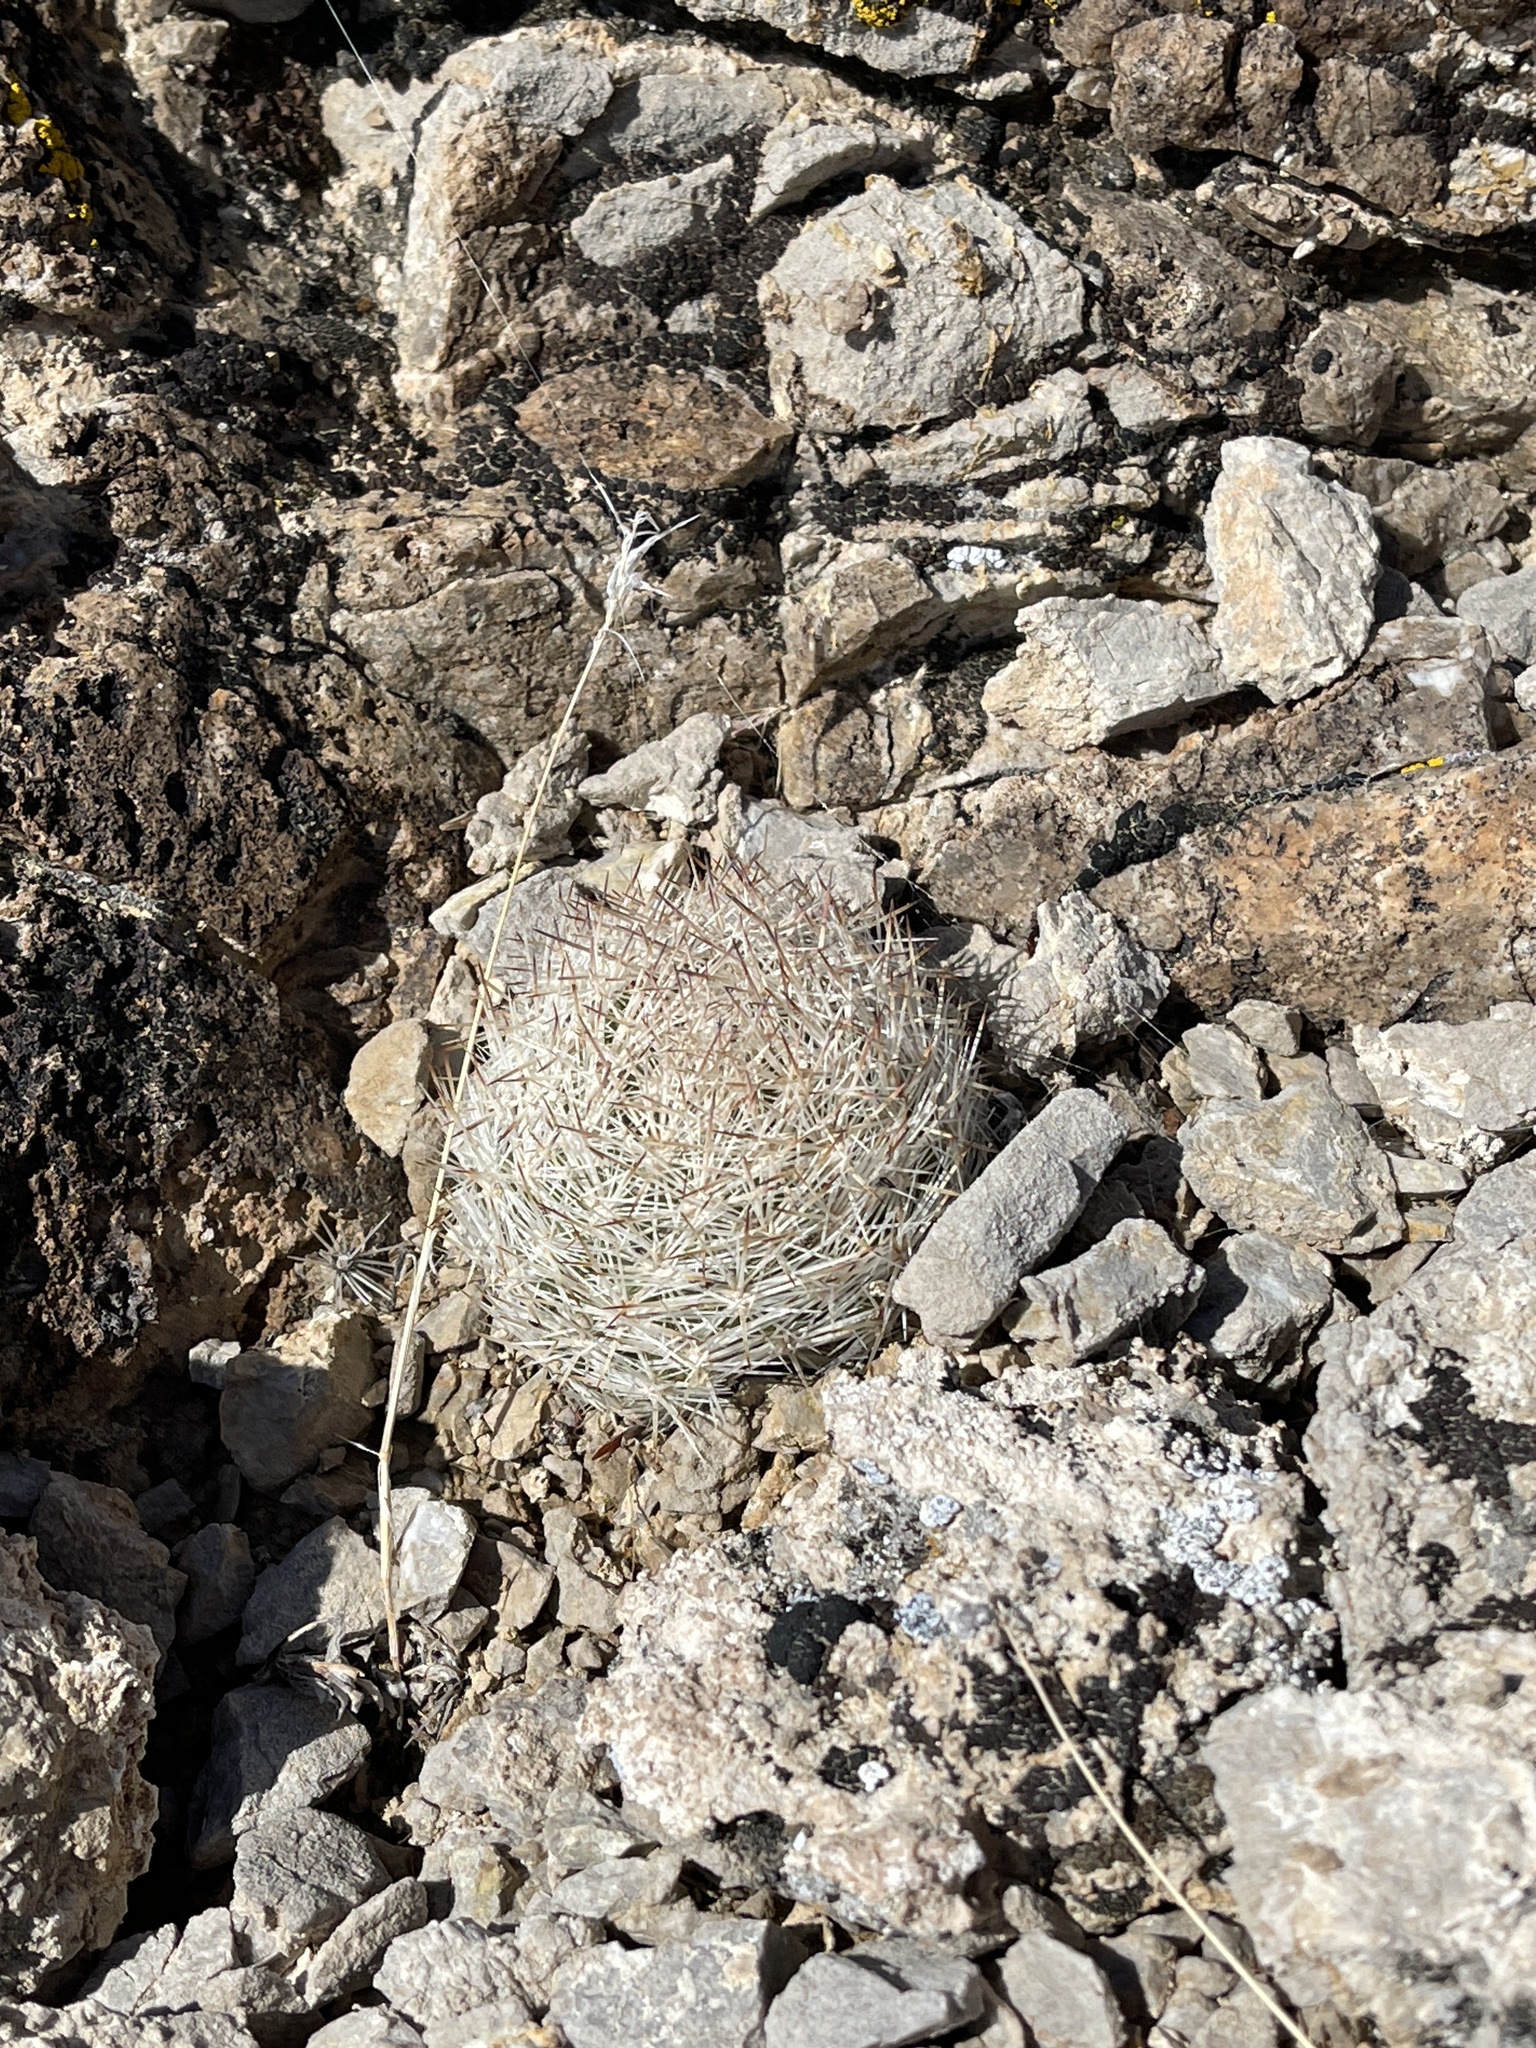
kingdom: Plantae
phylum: Tracheophyta
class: Magnoliopsida
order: Caryophyllales
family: Cactaceae
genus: Pelecyphora
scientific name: Pelecyphora dasyacantha
